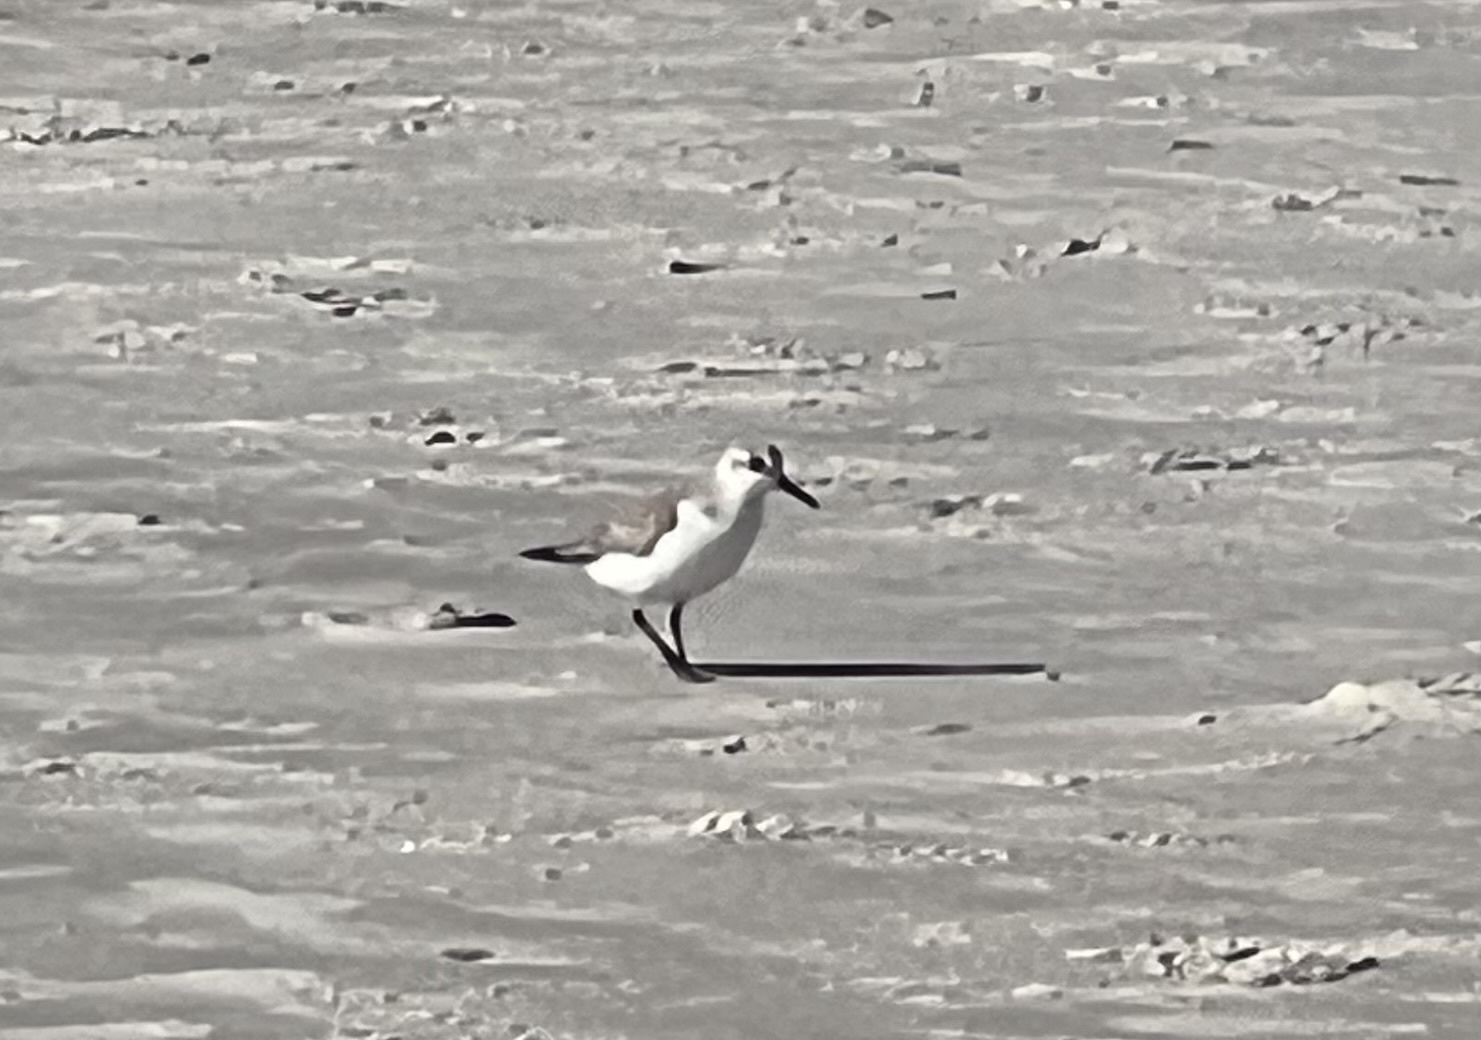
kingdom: Animalia
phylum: Chordata
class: Aves
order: Charadriiformes
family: Scolopacidae
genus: Calidris
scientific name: Calidris alba
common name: Sanderling
